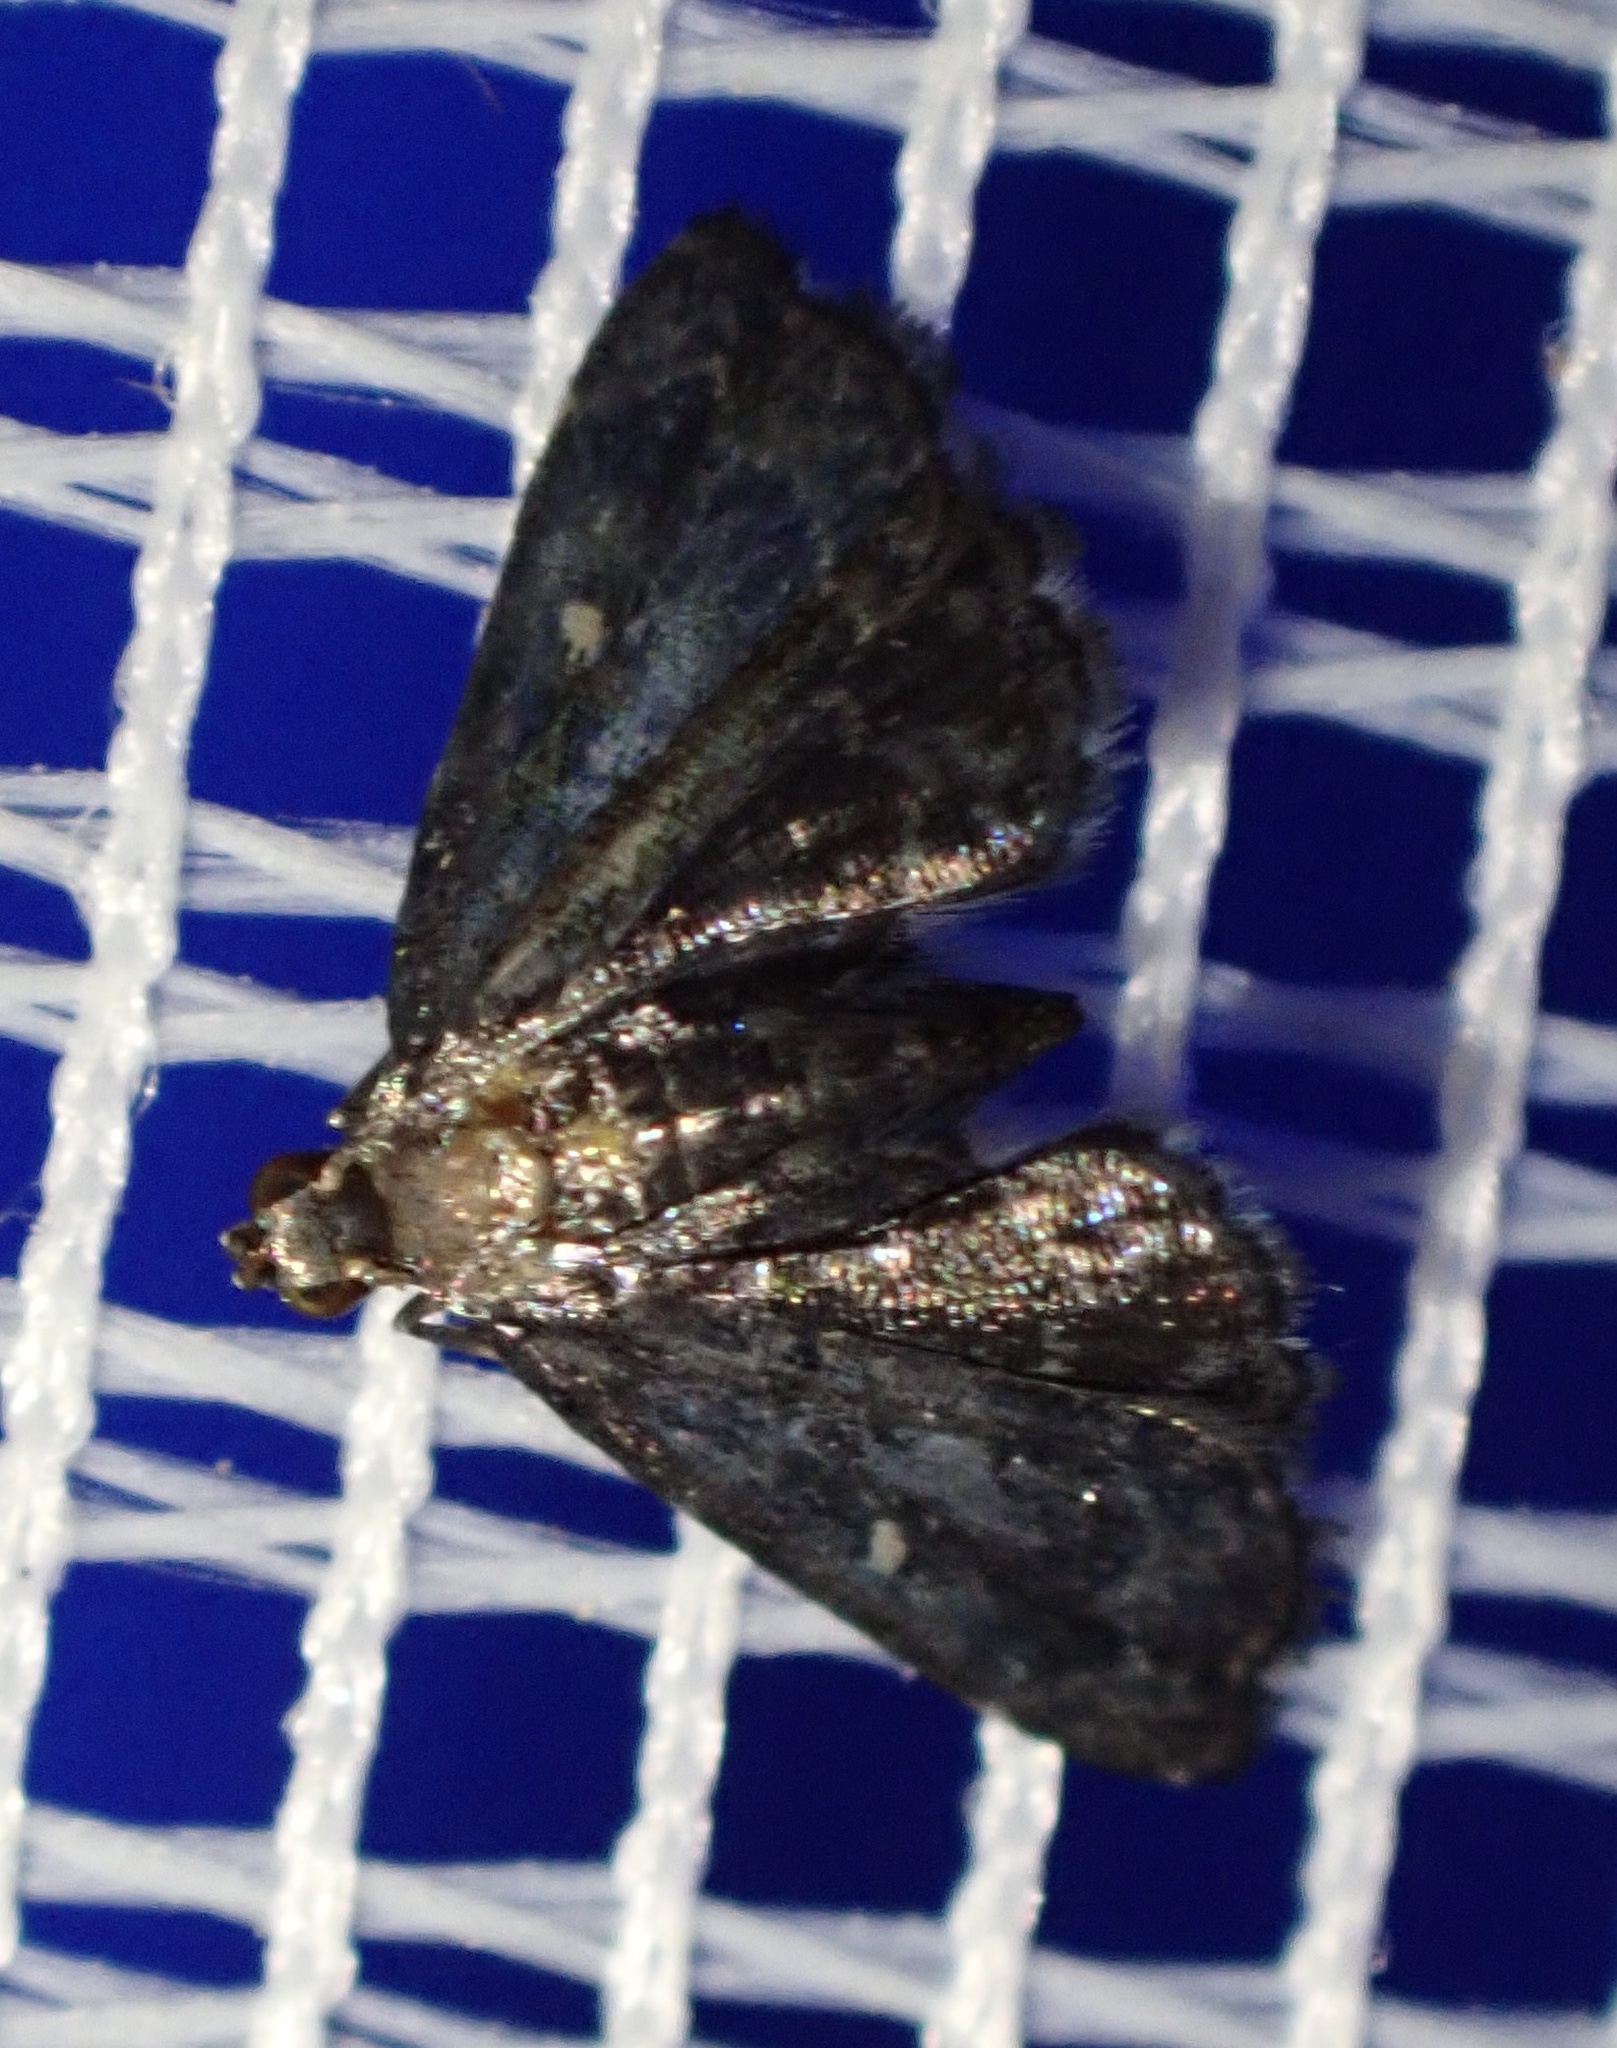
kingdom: Animalia
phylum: Arthropoda
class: Insecta
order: Lepidoptera
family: Pyralidae
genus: Drosophantis
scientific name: Drosophantis caeruleata
